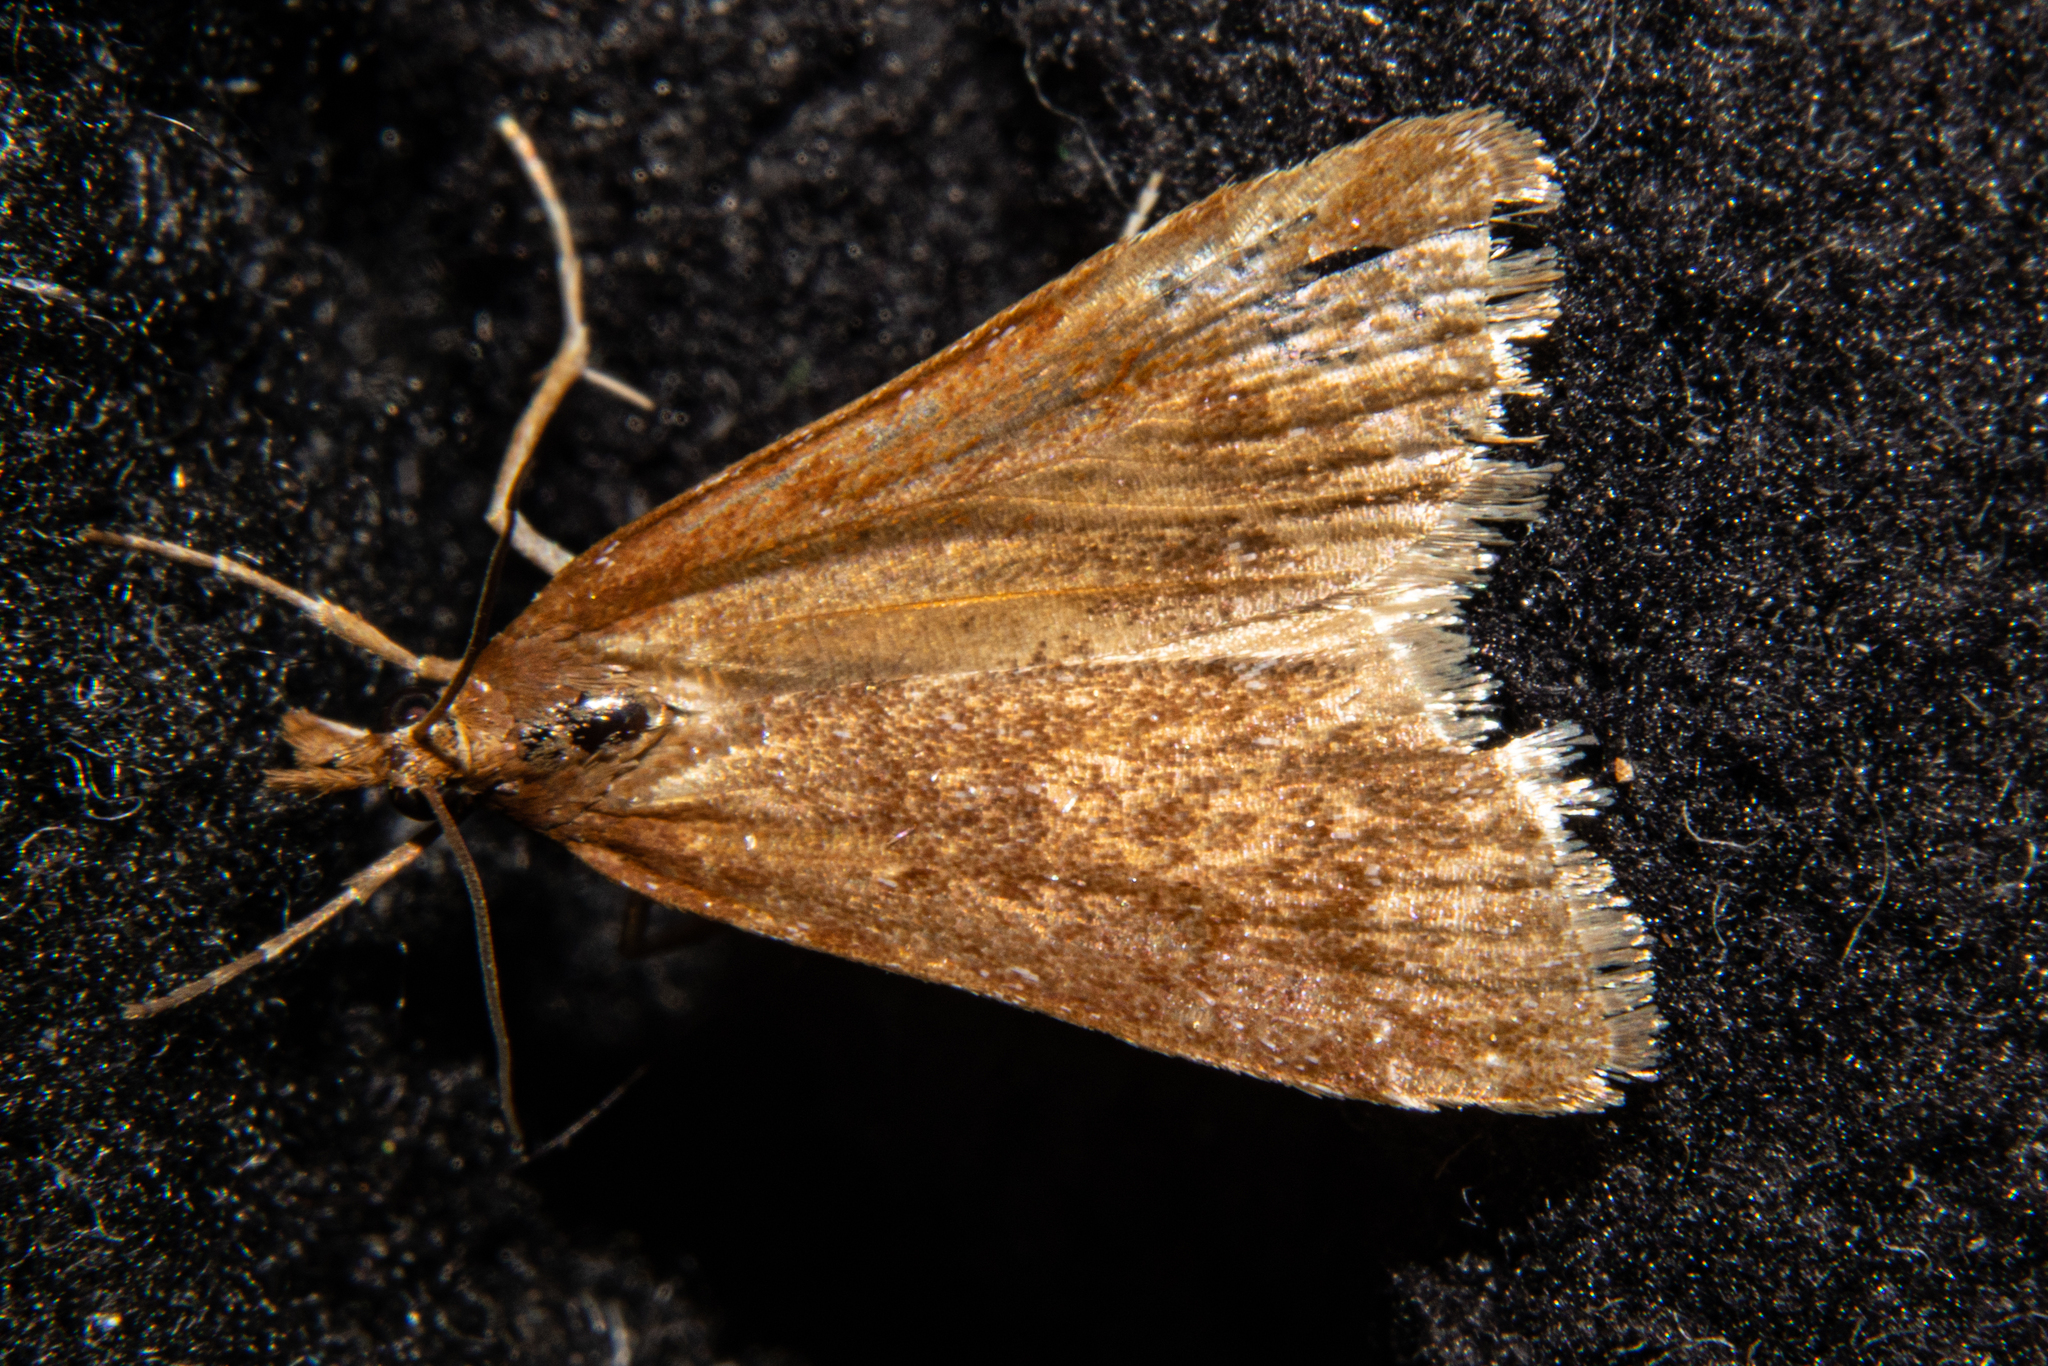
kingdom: Animalia
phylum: Arthropoda
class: Insecta
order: Lepidoptera
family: Crambidae
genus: Eudonia
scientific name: Eudonia feredayi
